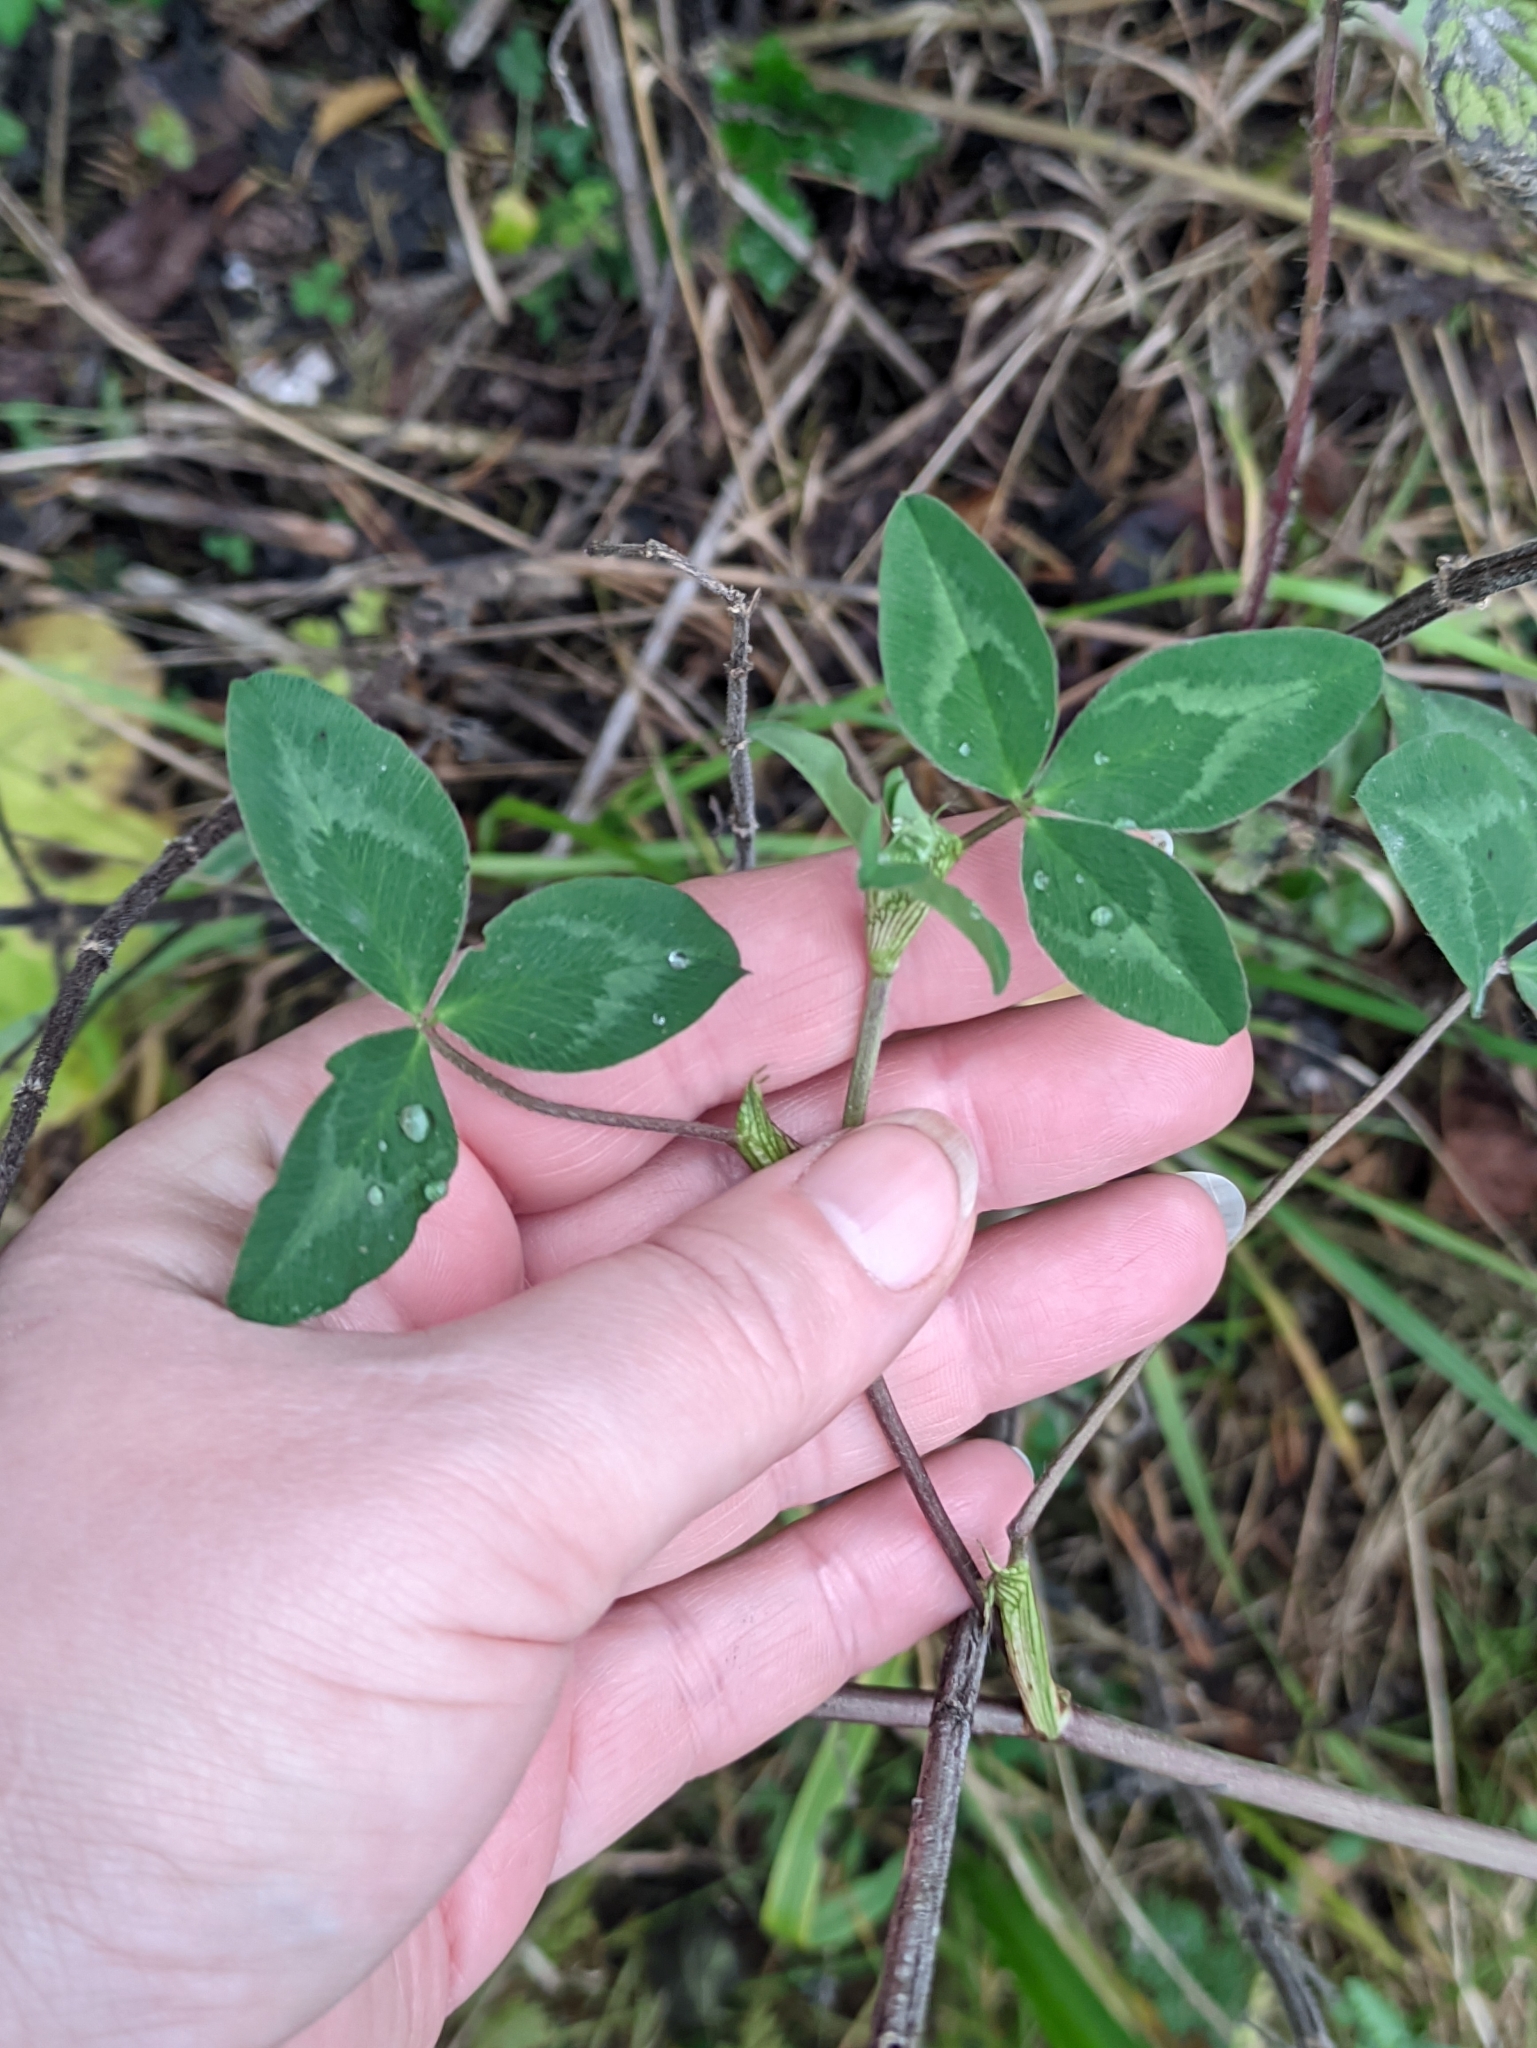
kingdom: Plantae
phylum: Tracheophyta
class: Magnoliopsida
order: Fabales
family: Fabaceae
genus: Trifolium
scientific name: Trifolium pratense
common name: Red clover
